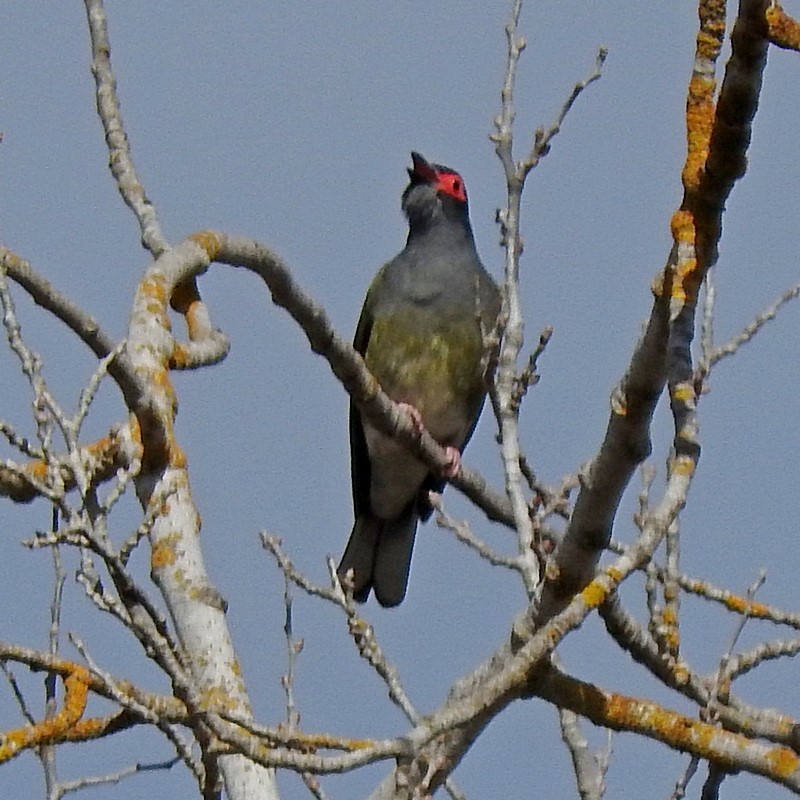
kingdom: Animalia
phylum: Chordata
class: Aves
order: Passeriformes
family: Oriolidae
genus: Sphecotheres
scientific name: Sphecotheres vieilloti
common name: Australasian figbird
